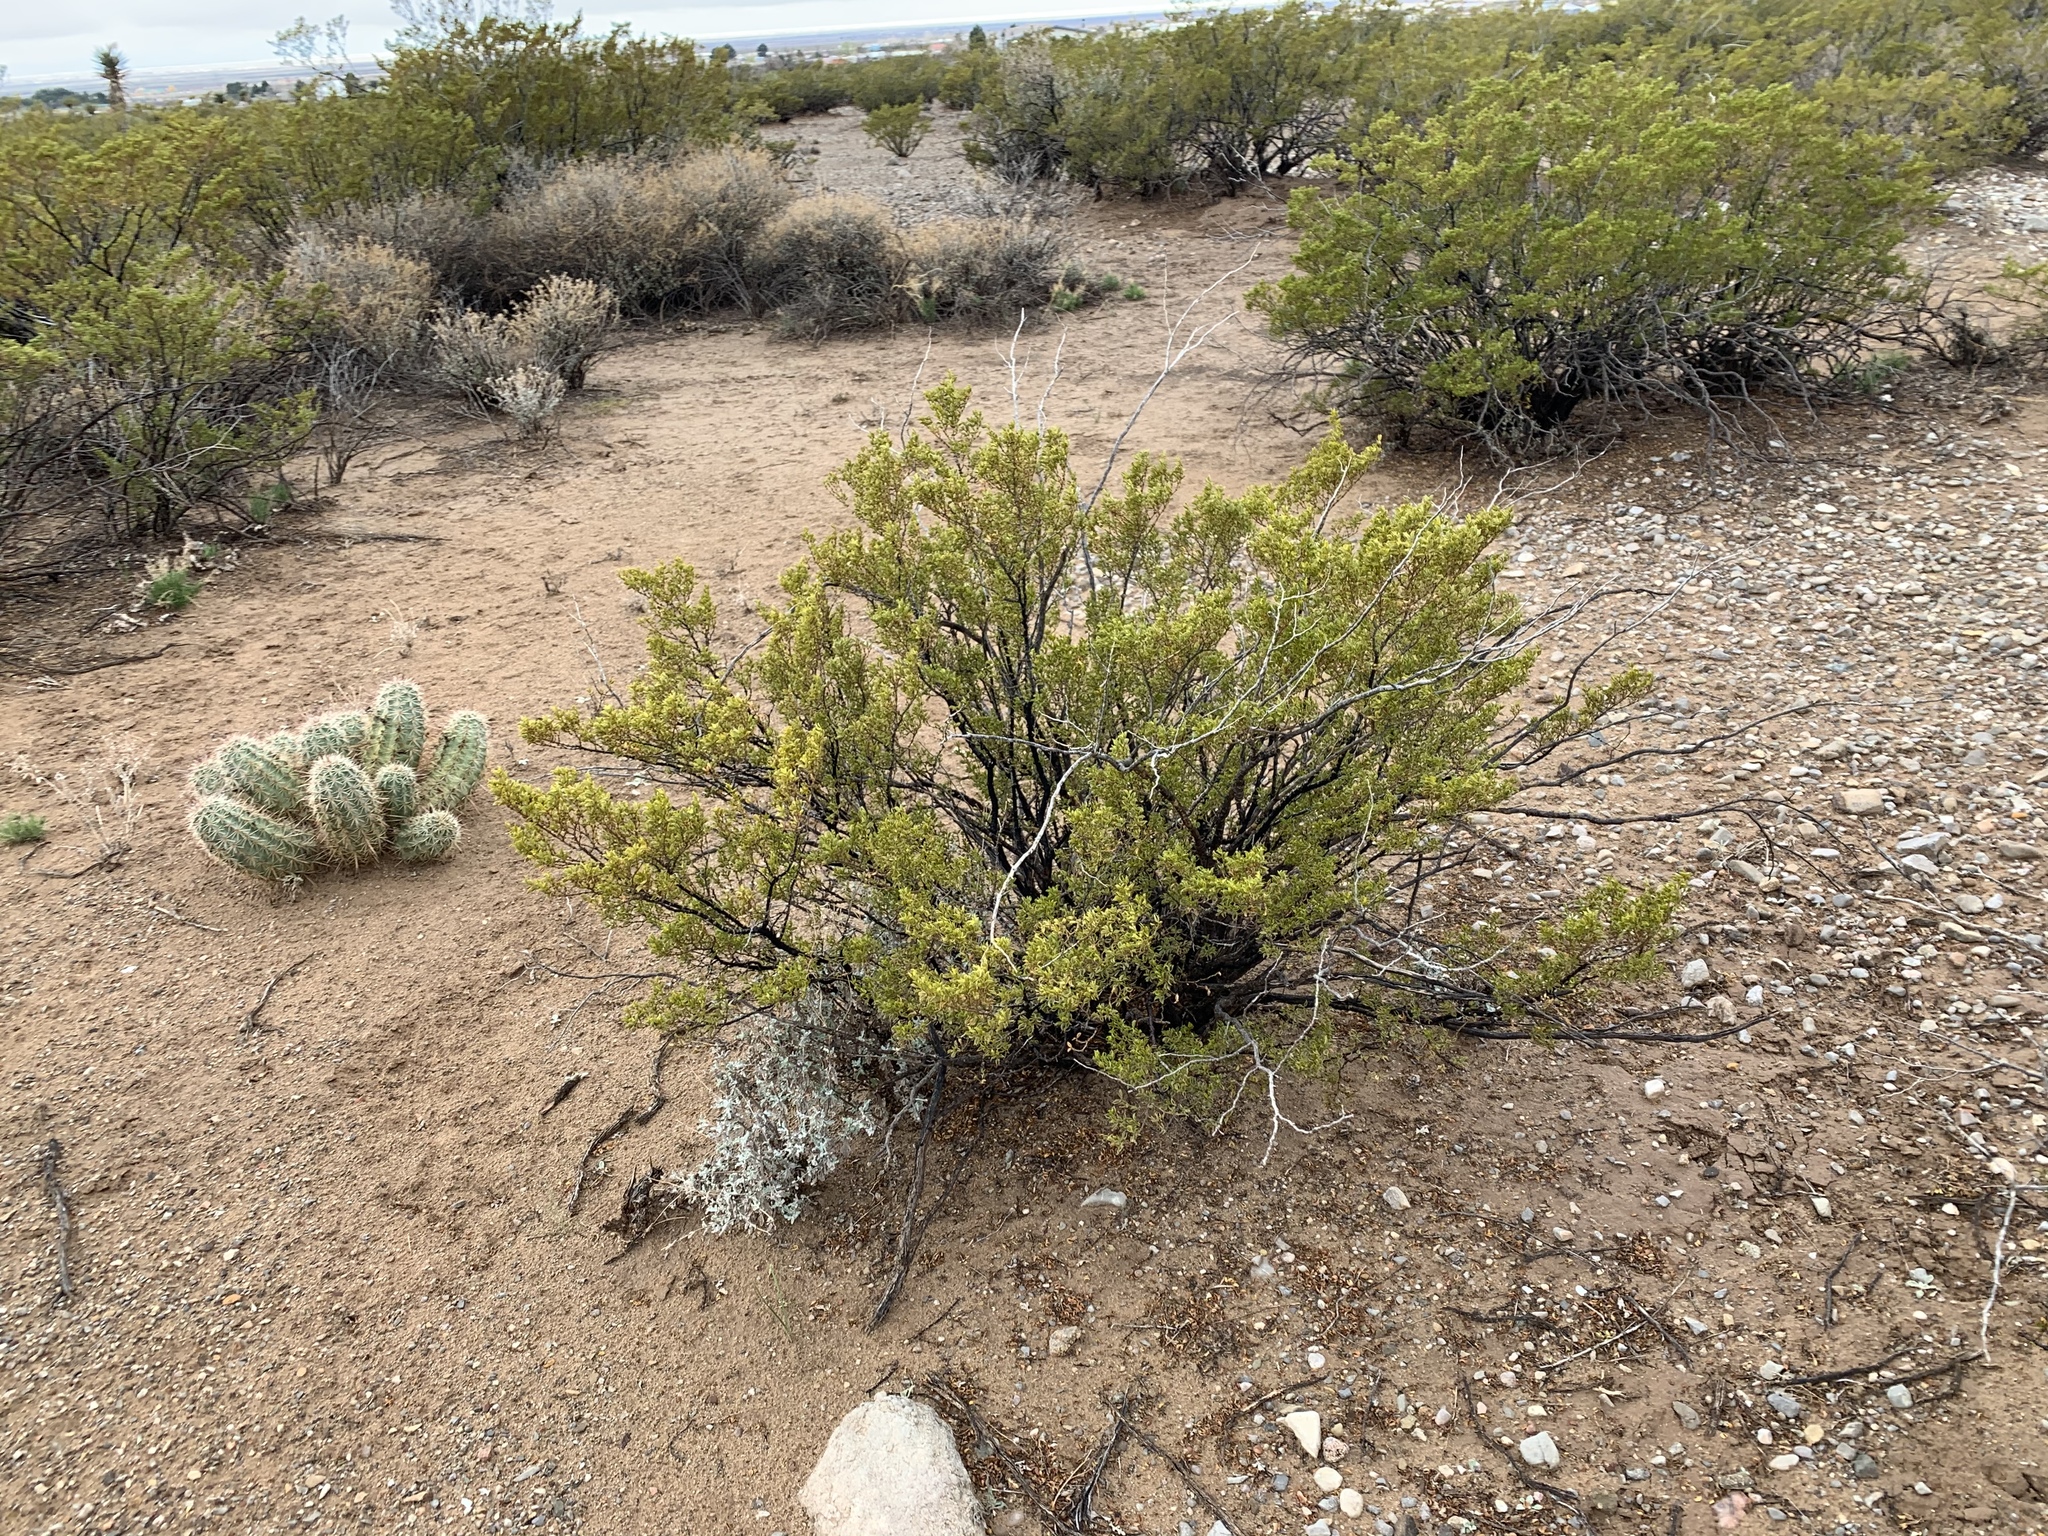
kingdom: Plantae
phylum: Tracheophyta
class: Magnoliopsida
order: Zygophyllales
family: Zygophyllaceae
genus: Larrea
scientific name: Larrea tridentata
